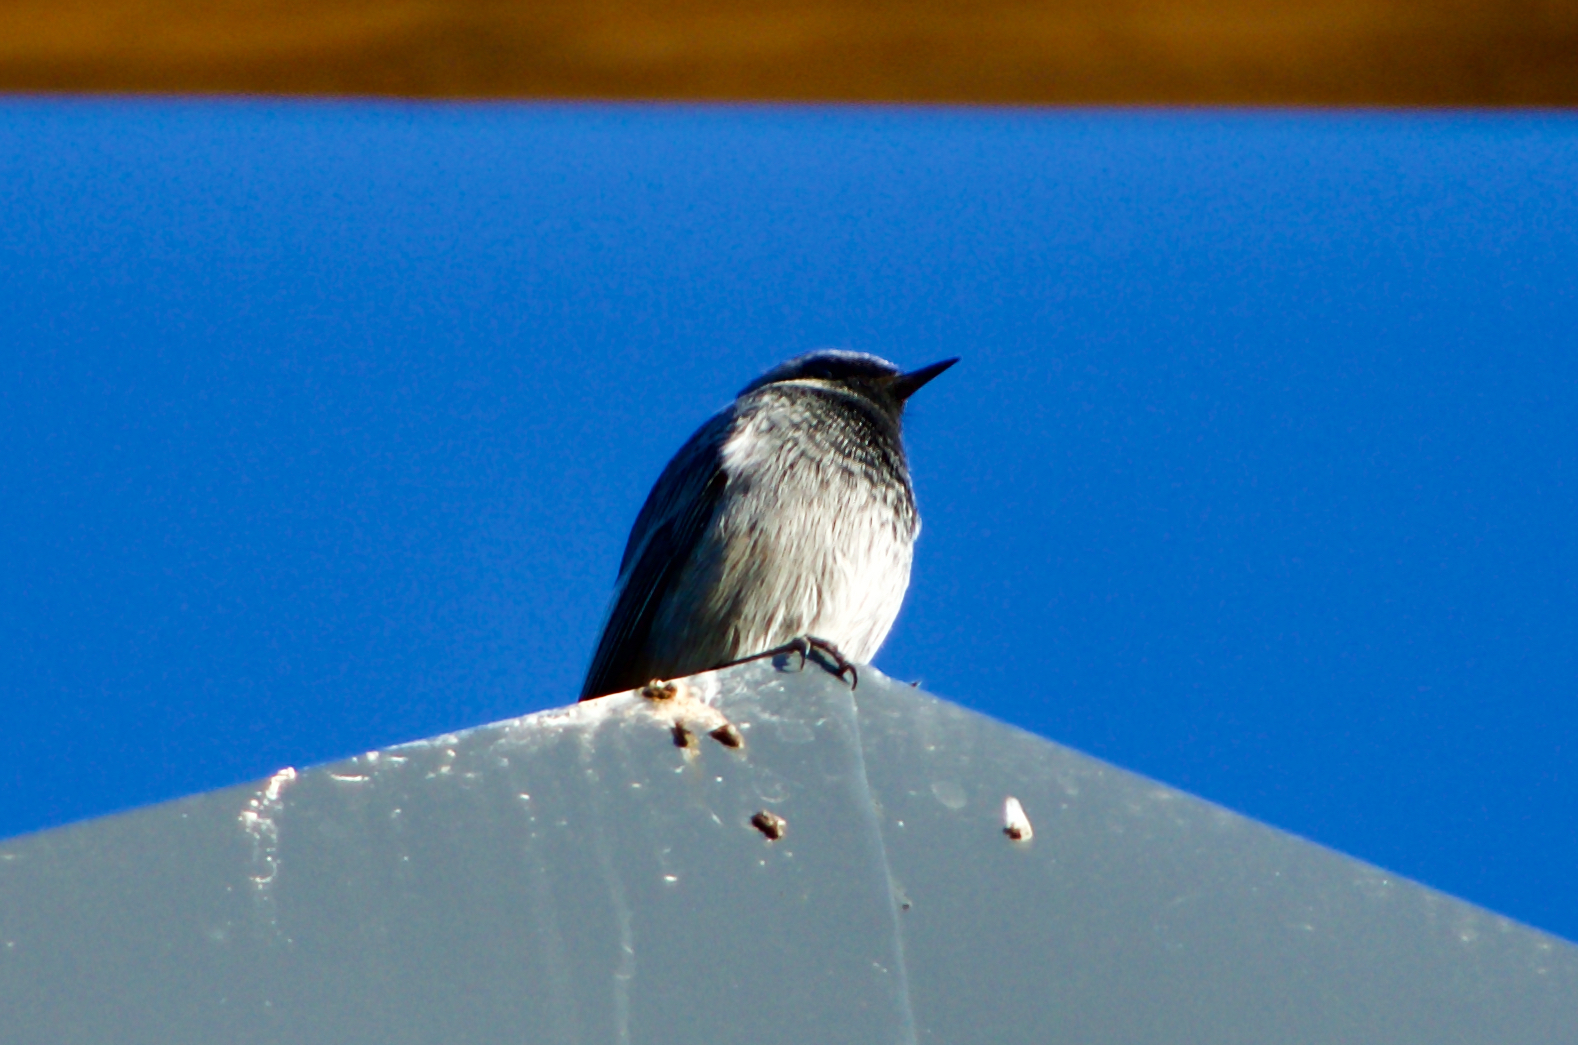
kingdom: Animalia
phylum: Chordata
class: Aves
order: Passeriformes
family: Muscicapidae
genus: Phoenicurus
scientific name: Phoenicurus ochruros
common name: Black redstart
